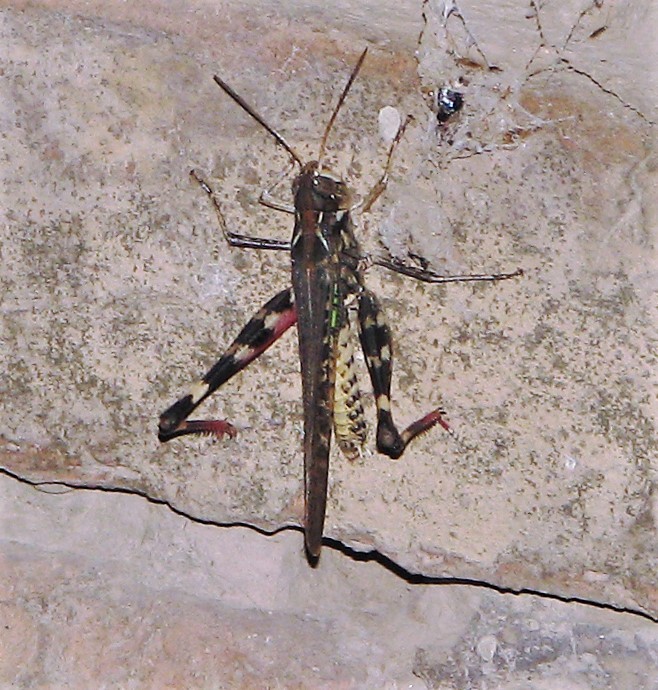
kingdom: Animalia
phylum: Arthropoda
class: Insecta
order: Orthoptera
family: Acrididae
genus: Rhammatocerus
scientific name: Rhammatocerus pictus
